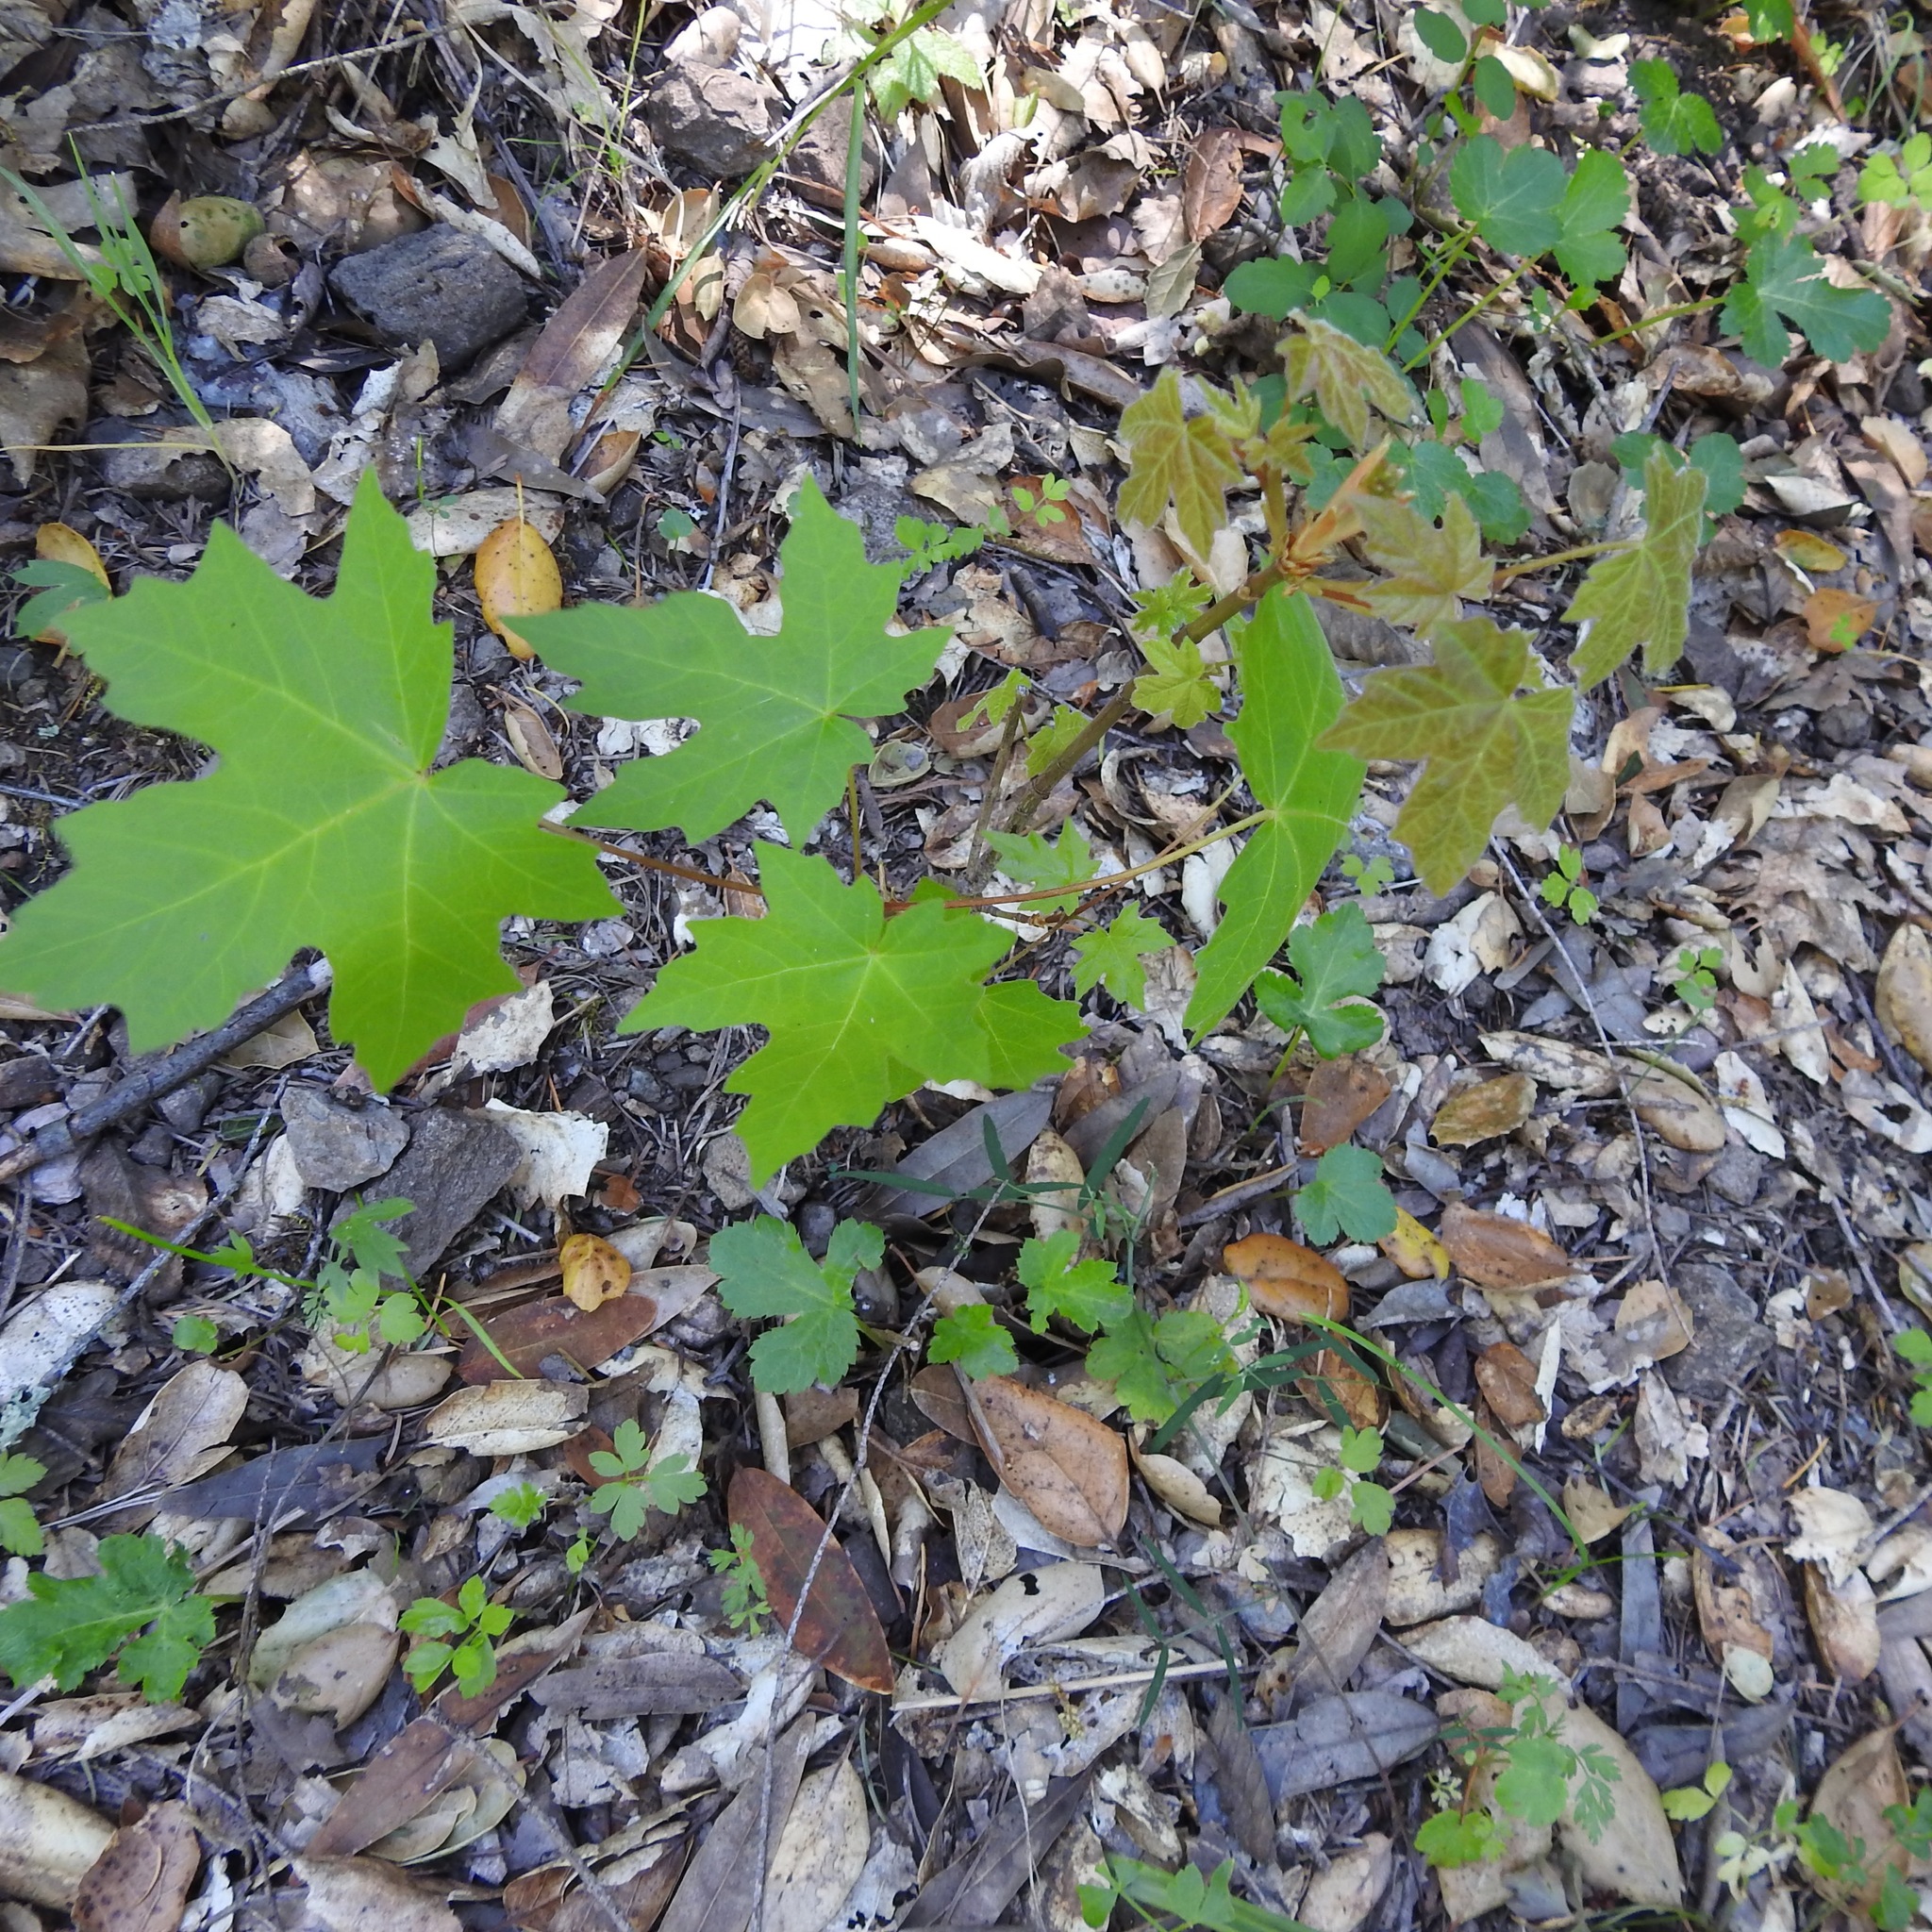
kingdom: Plantae
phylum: Tracheophyta
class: Magnoliopsida
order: Sapindales
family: Sapindaceae
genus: Acer
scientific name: Acer macrophyllum
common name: Oregon maple
